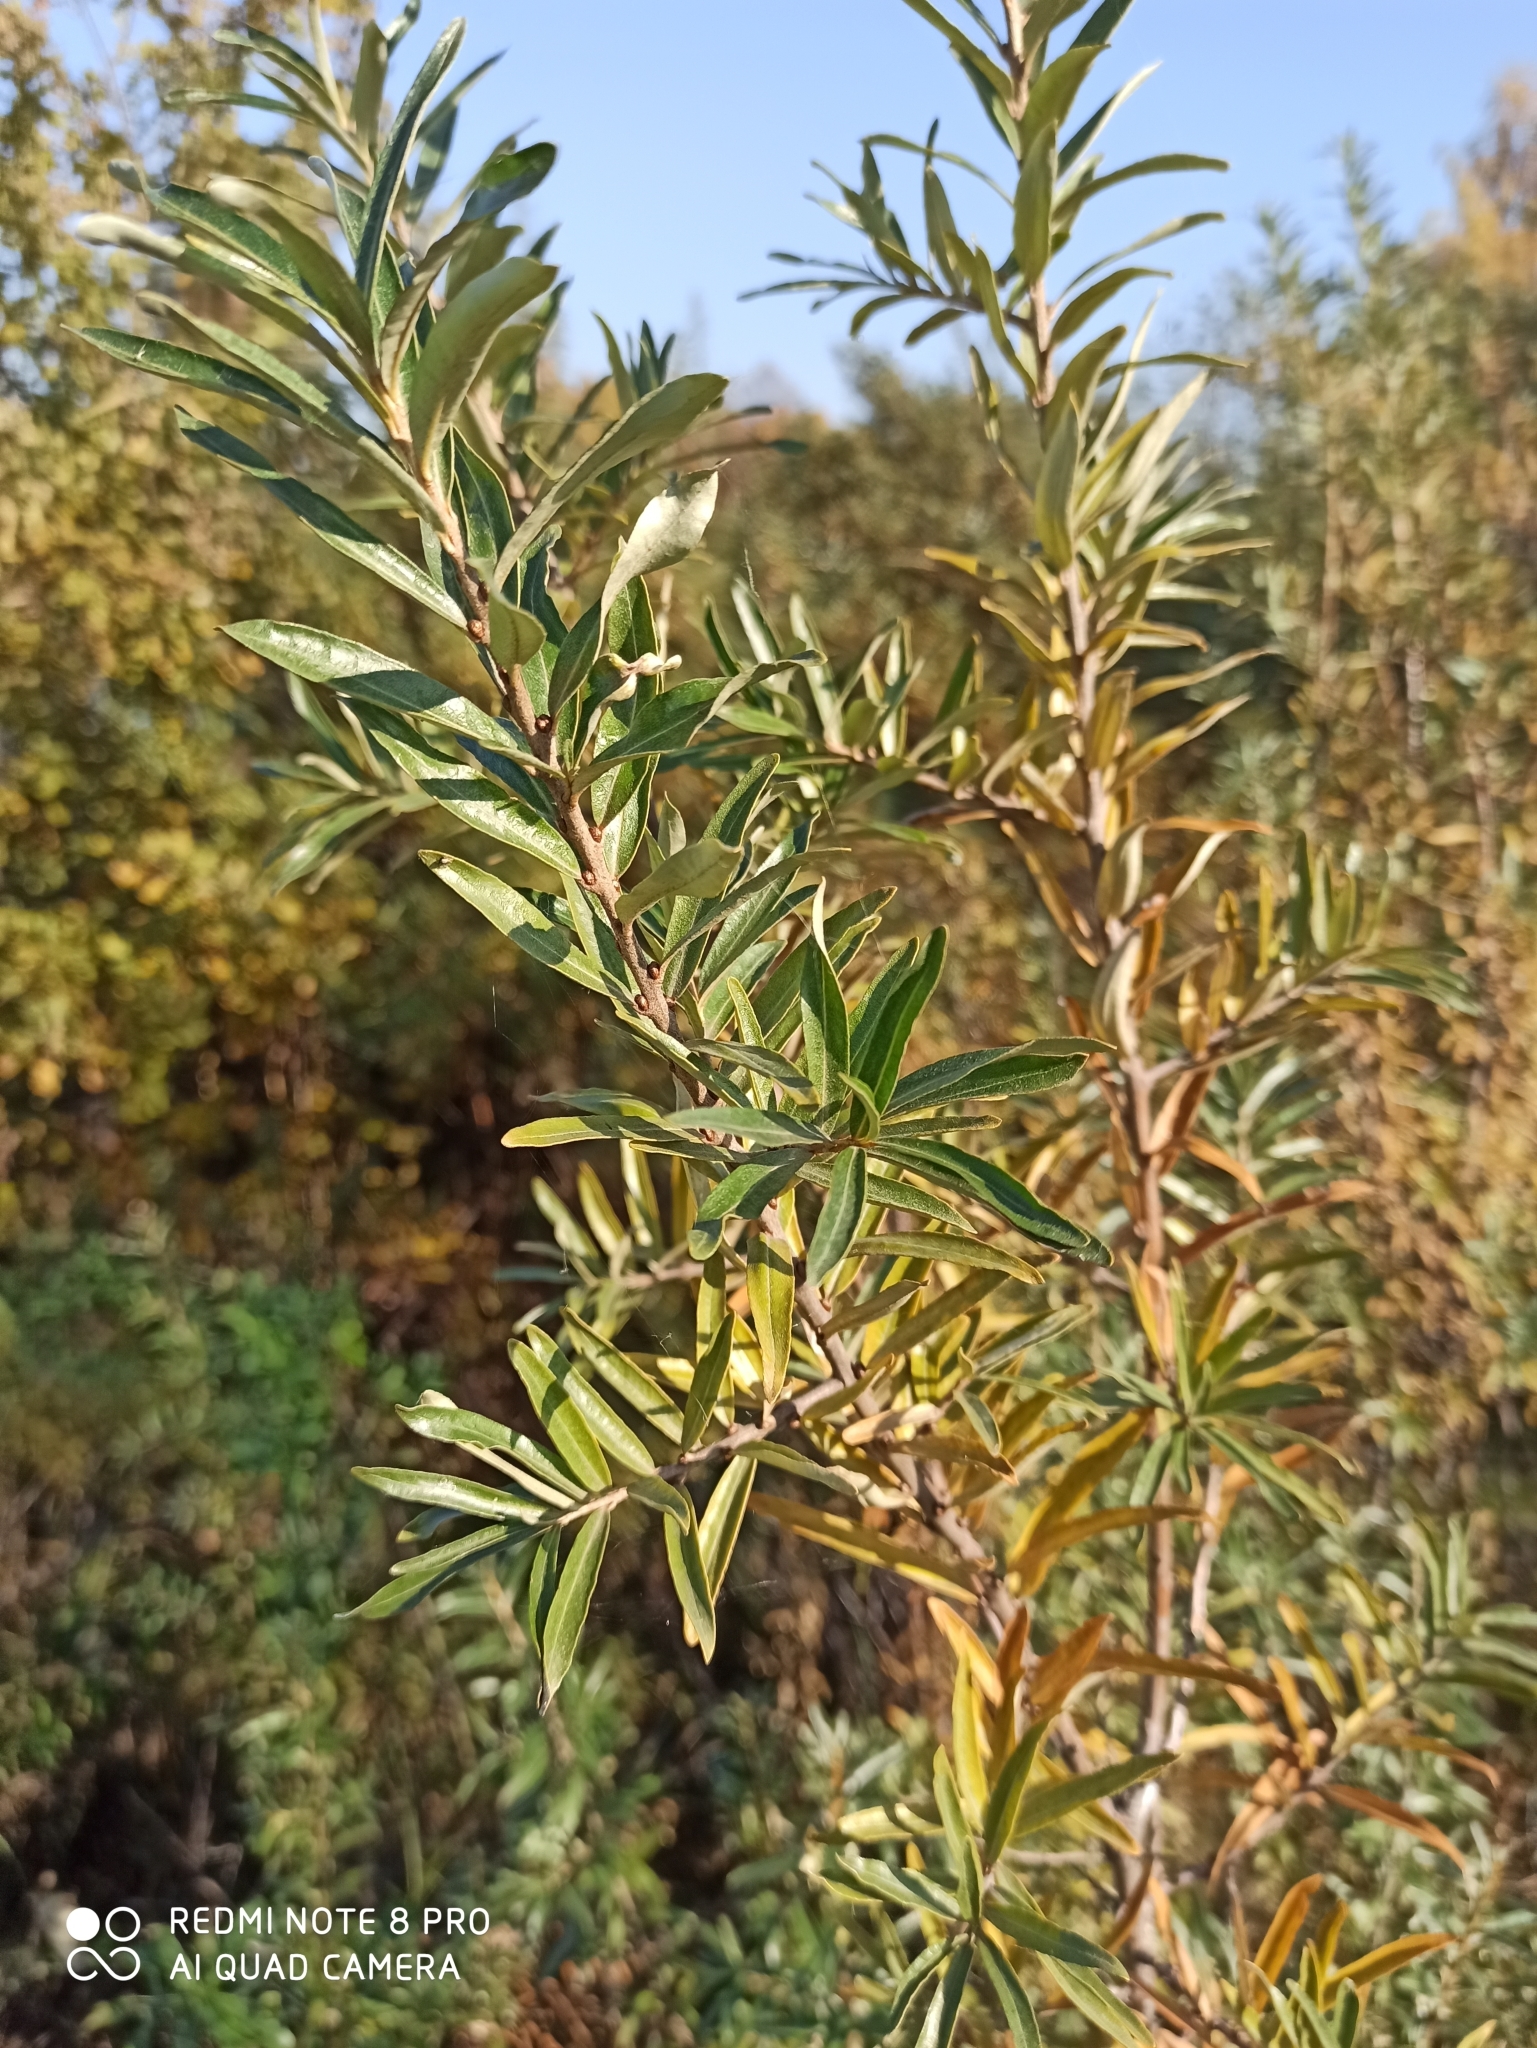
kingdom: Plantae
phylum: Tracheophyta
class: Magnoliopsida
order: Rosales
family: Elaeagnaceae
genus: Hippophae
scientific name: Hippophae rhamnoides
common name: Sea-buckthorn
